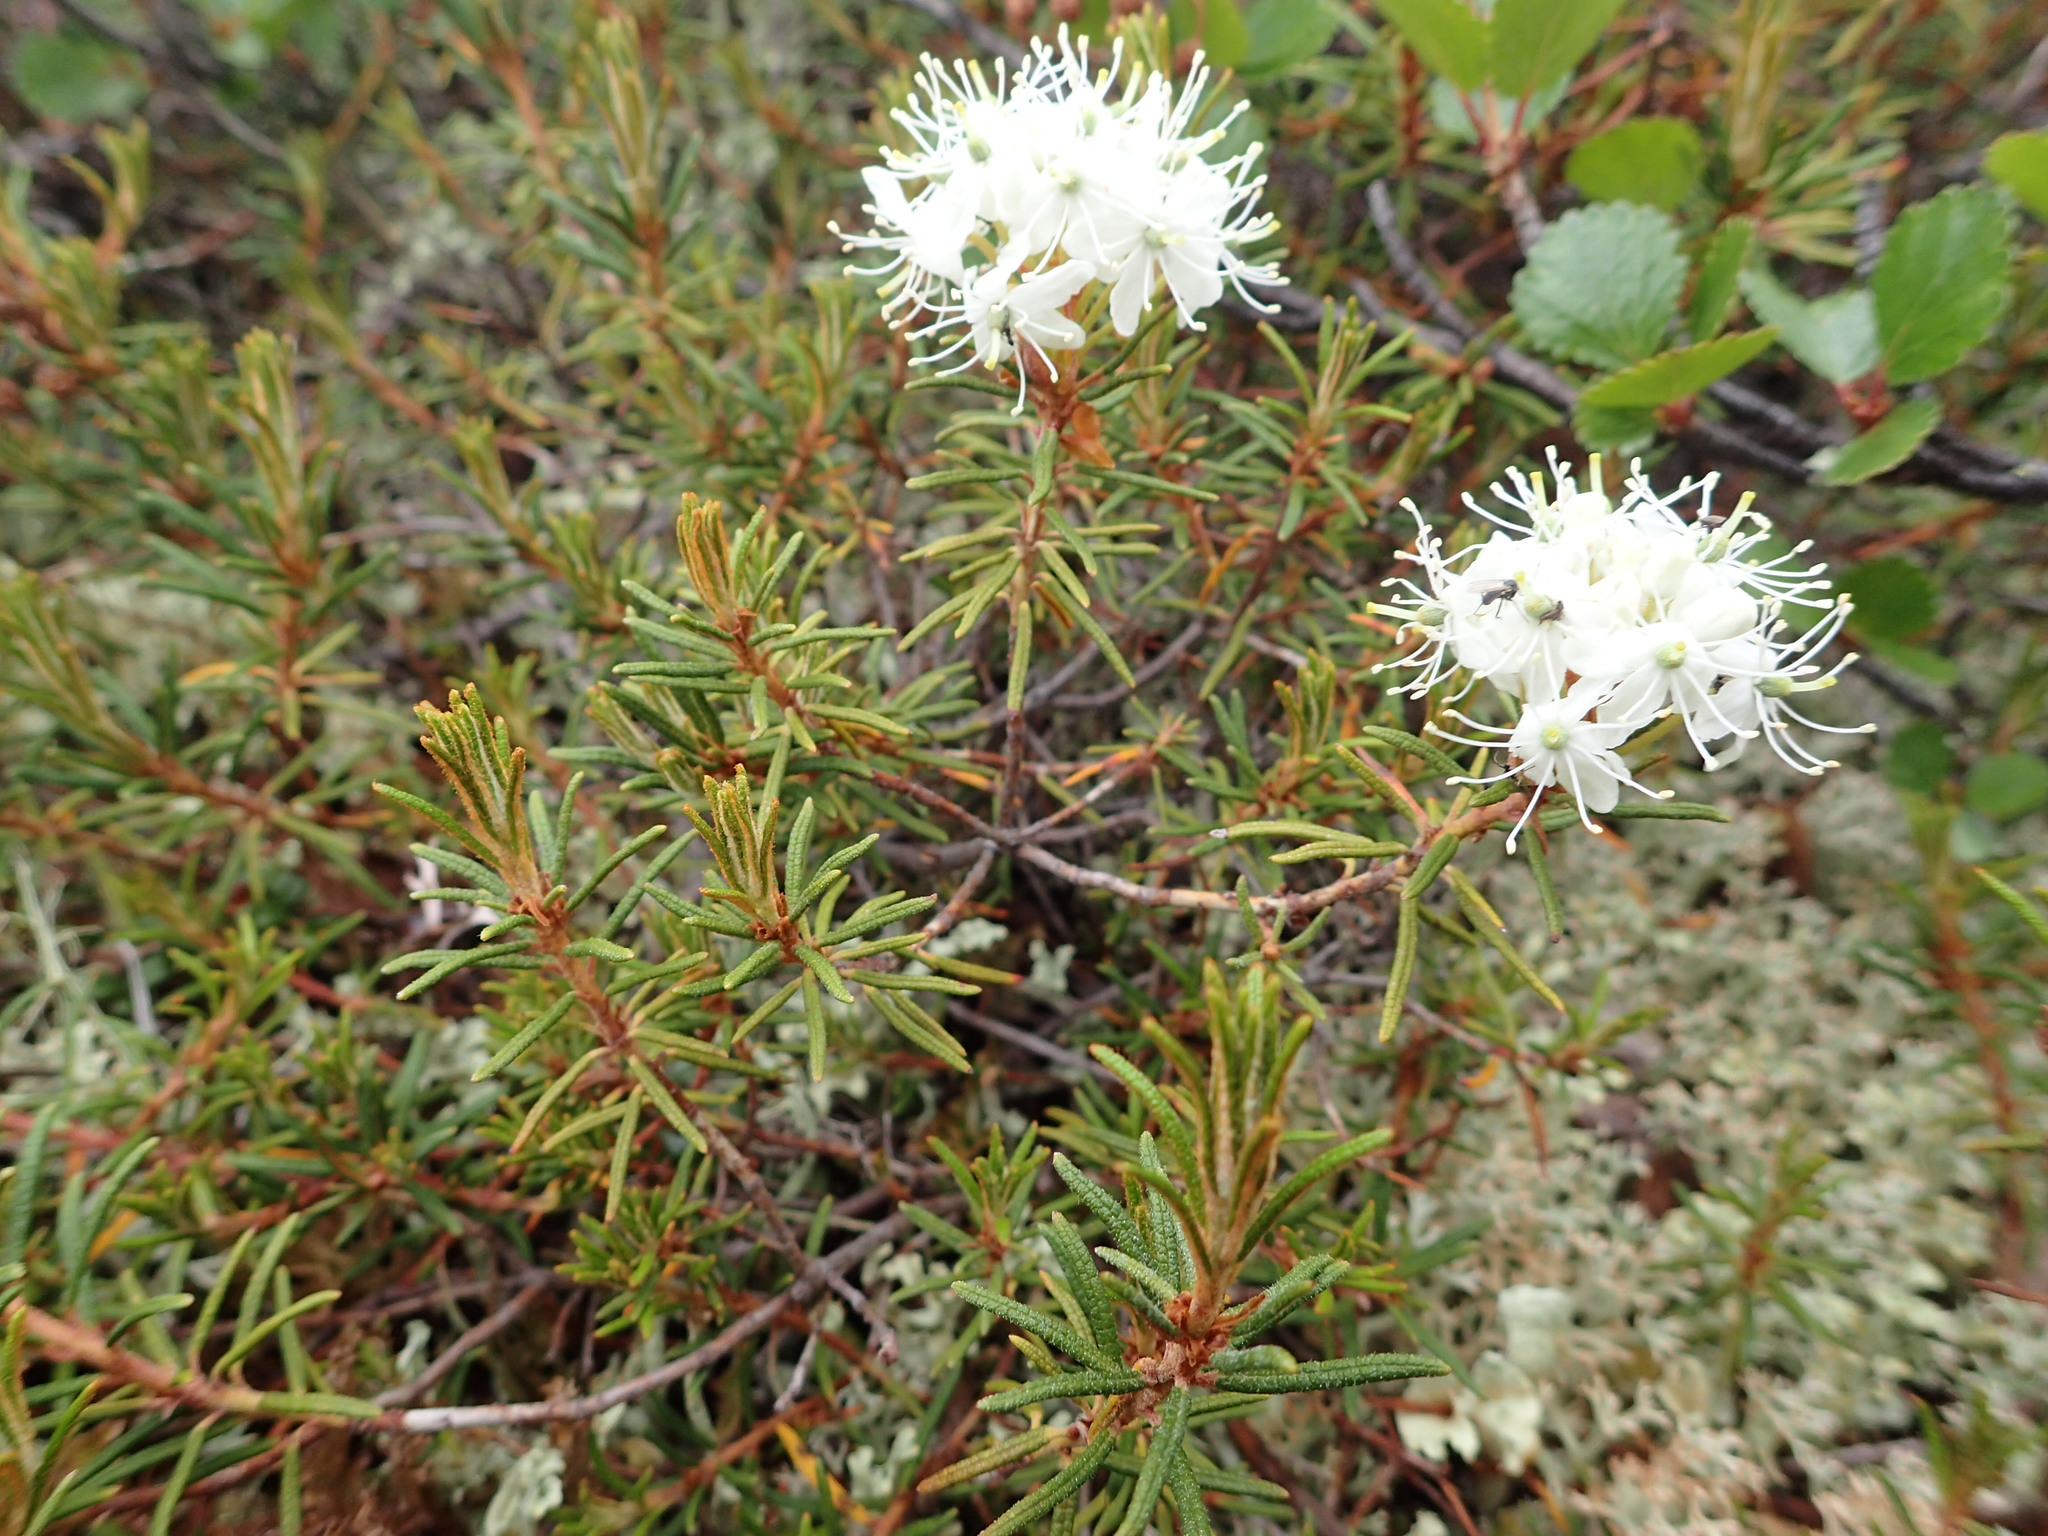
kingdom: Plantae
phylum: Tracheophyta
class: Magnoliopsida
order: Ericales
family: Ericaceae
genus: Rhododendron
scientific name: Rhododendron tomentosum
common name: Marsh labrador tea
